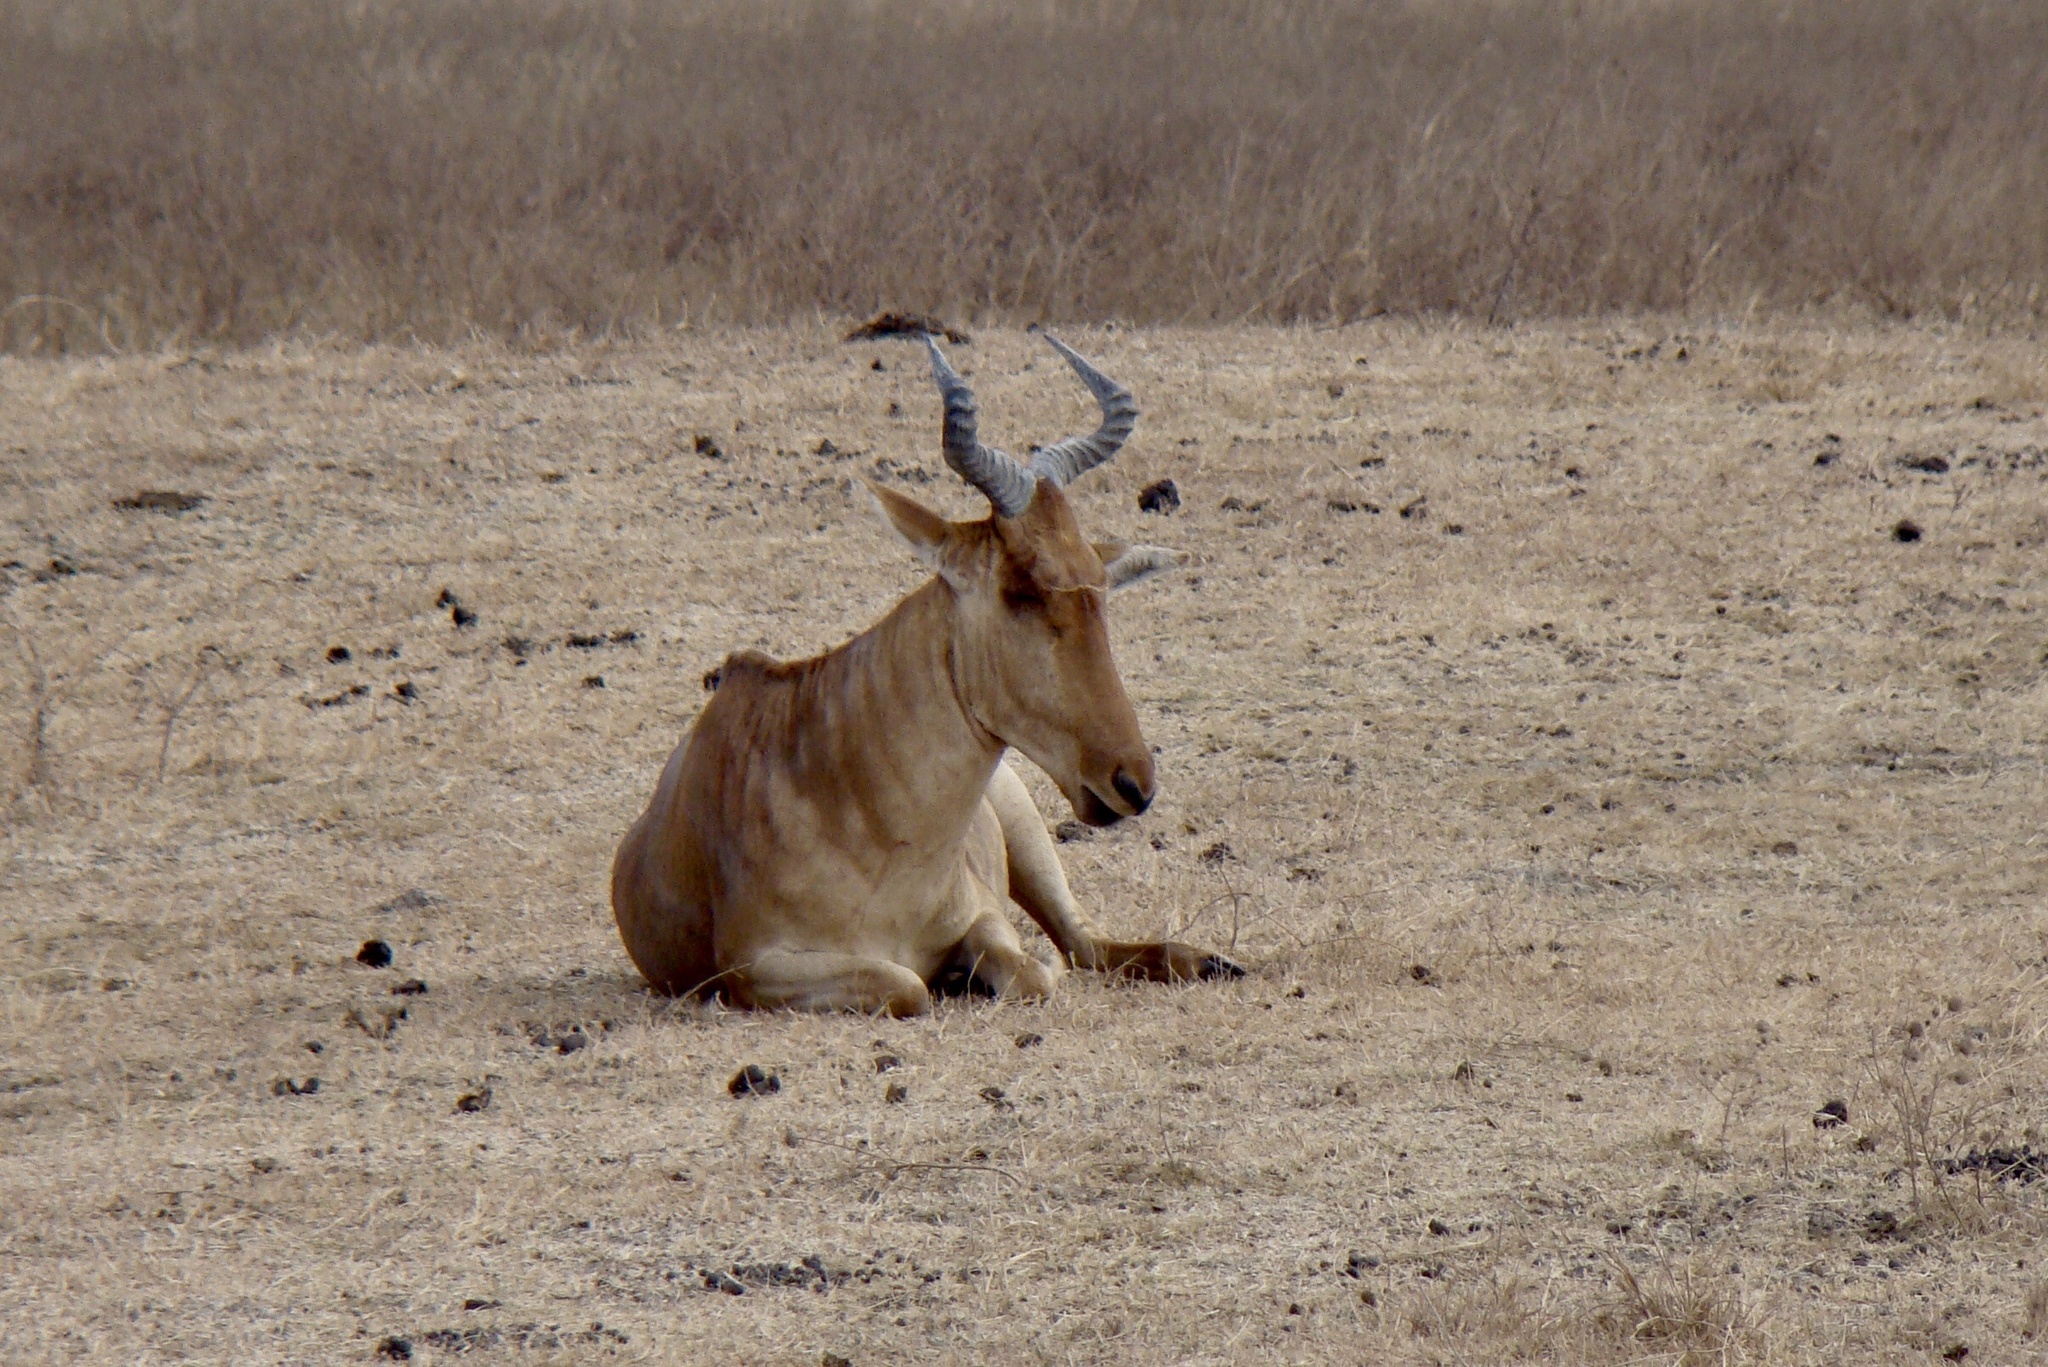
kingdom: Animalia
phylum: Chordata
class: Mammalia
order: Artiodactyla
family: Bovidae
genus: Alcelaphus
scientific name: Alcelaphus buselaphus
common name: Hartebeest
